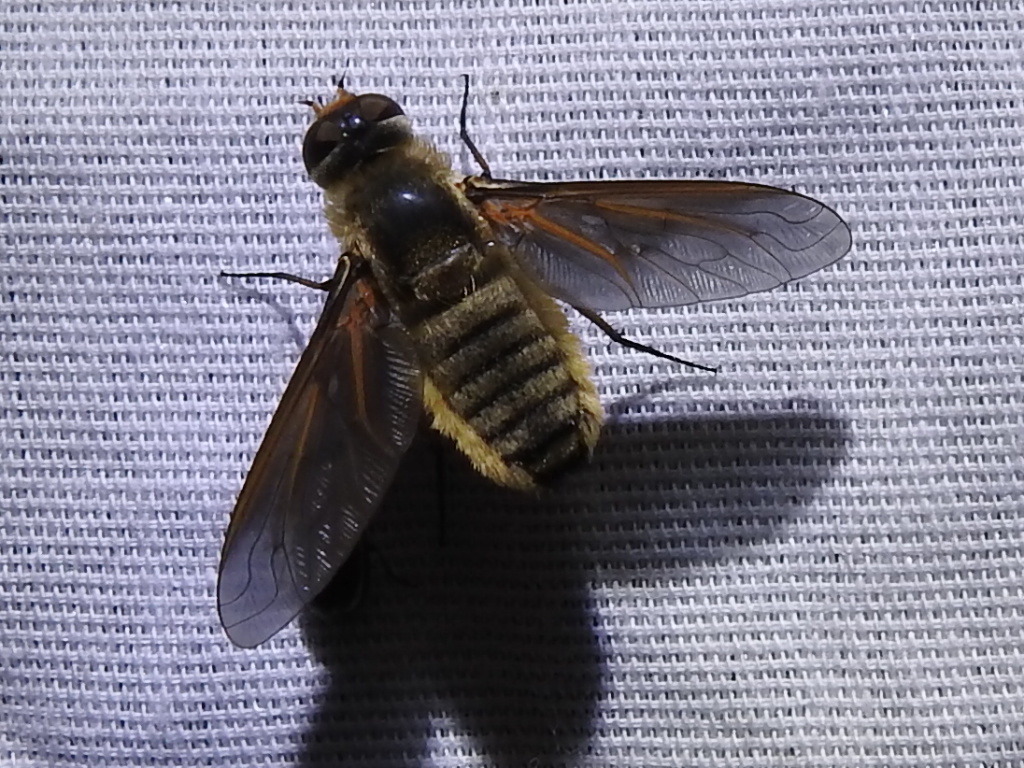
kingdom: Animalia
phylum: Arthropoda
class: Insecta
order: Diptera
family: Bombyliidae
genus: Poecilanthrax
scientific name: Poecilanthrax lucifer
